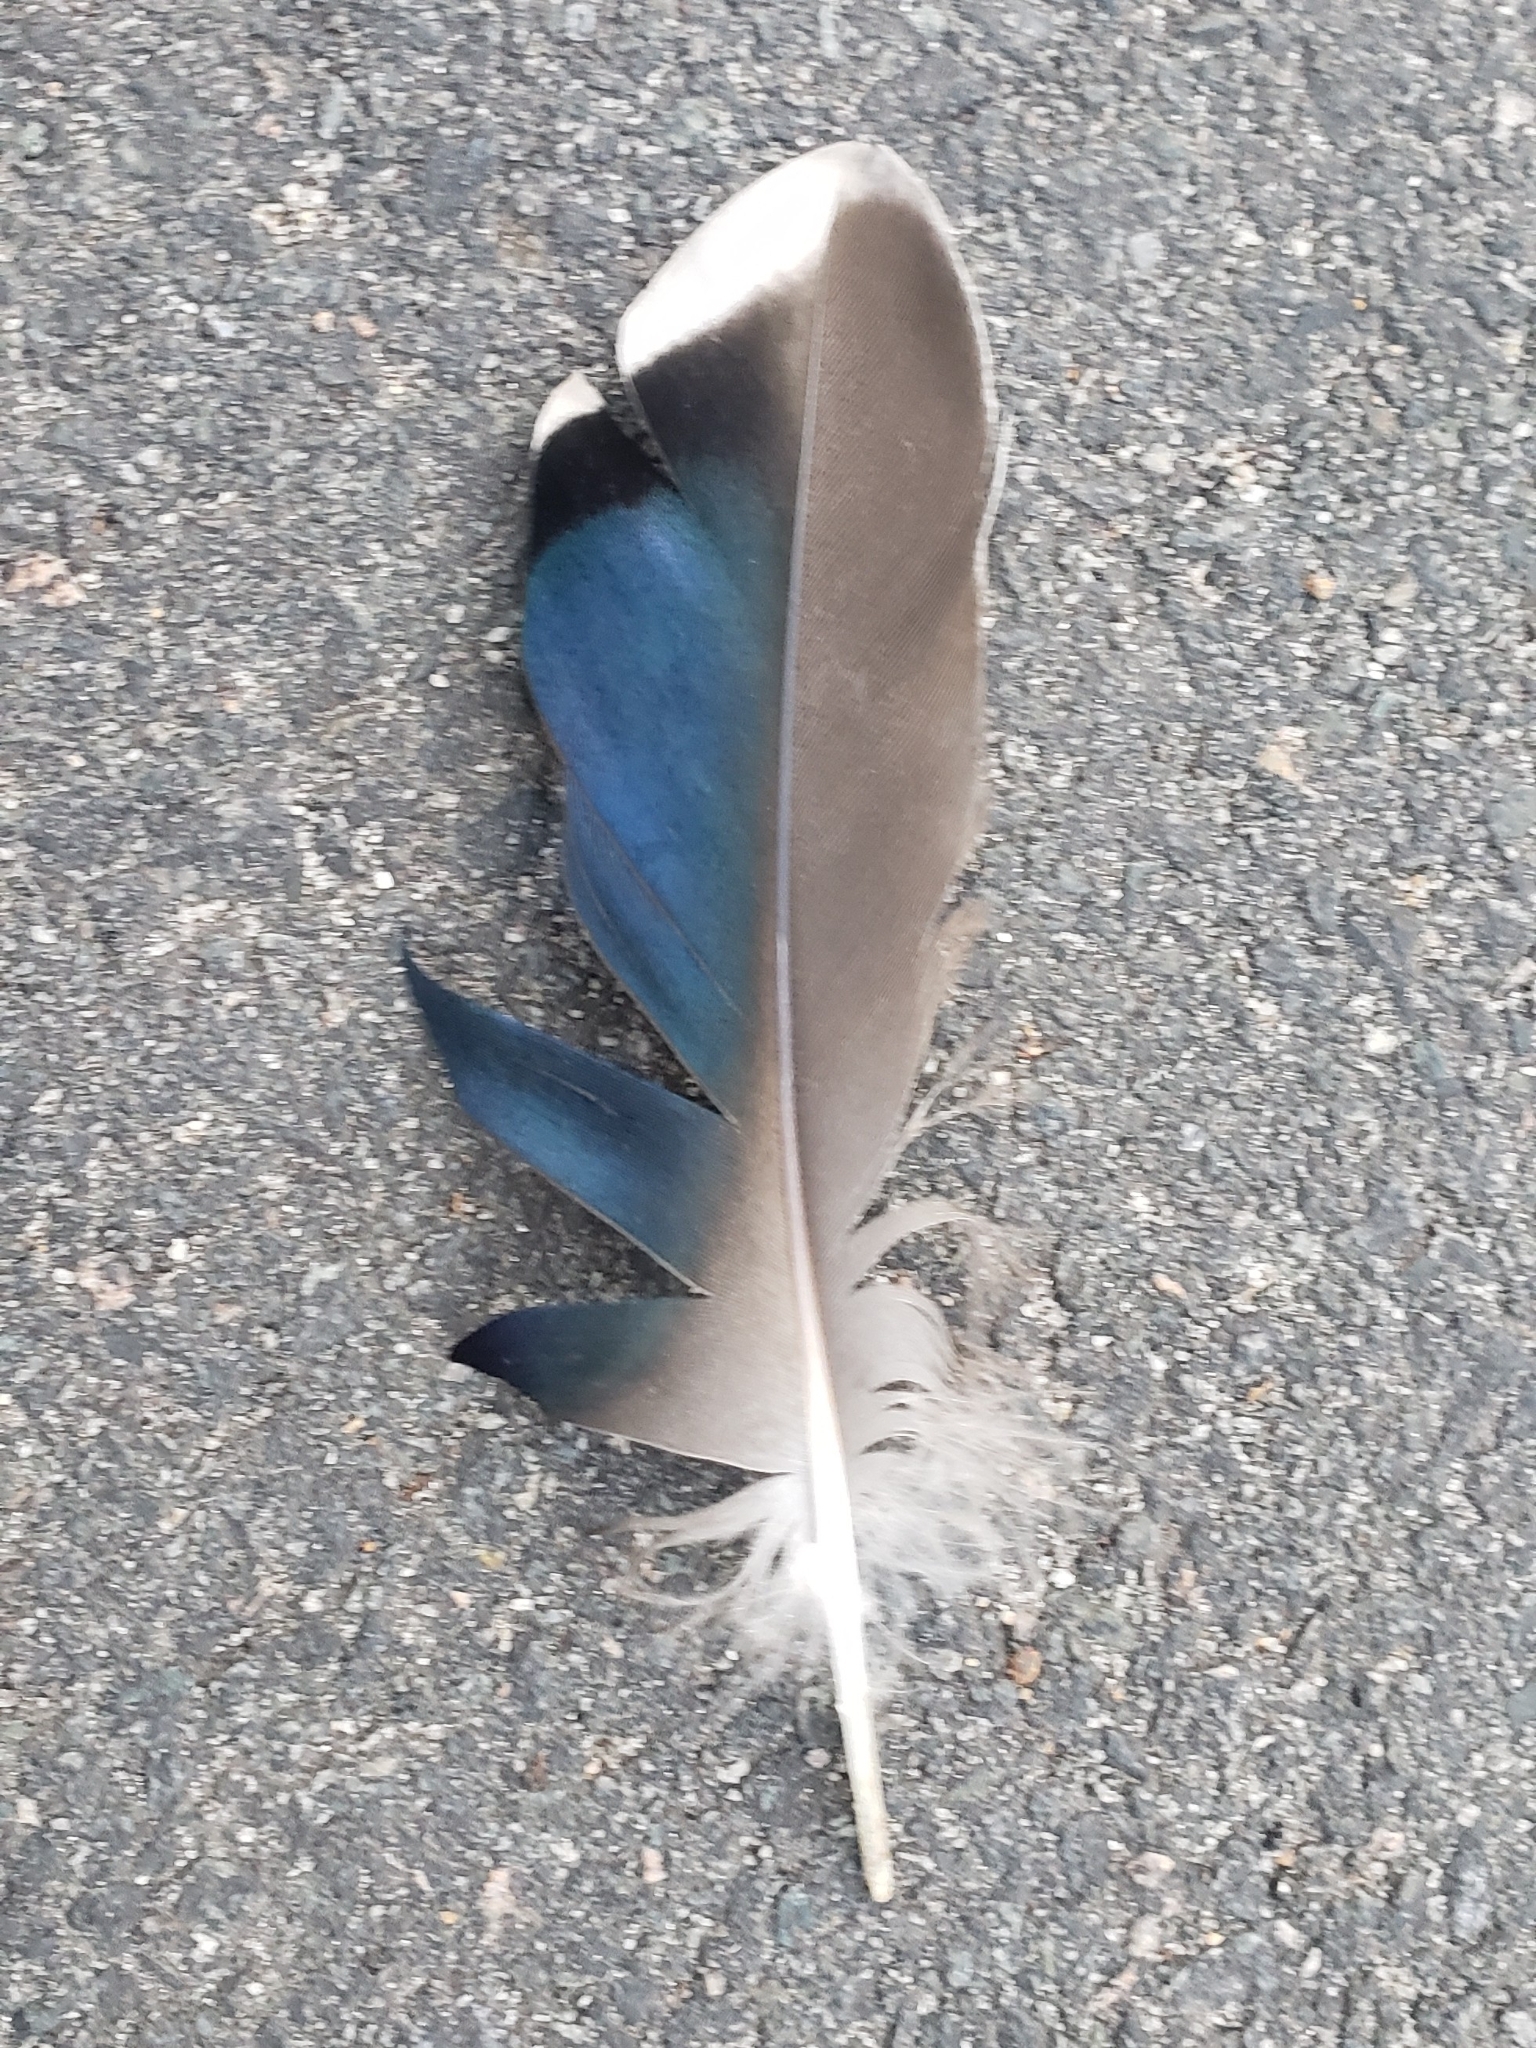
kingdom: Animalia
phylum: Chordata
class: Aves
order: Passeriformes
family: Corvidae
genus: Cyanocitta
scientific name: Cyanocitta cristata
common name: Blue jay
